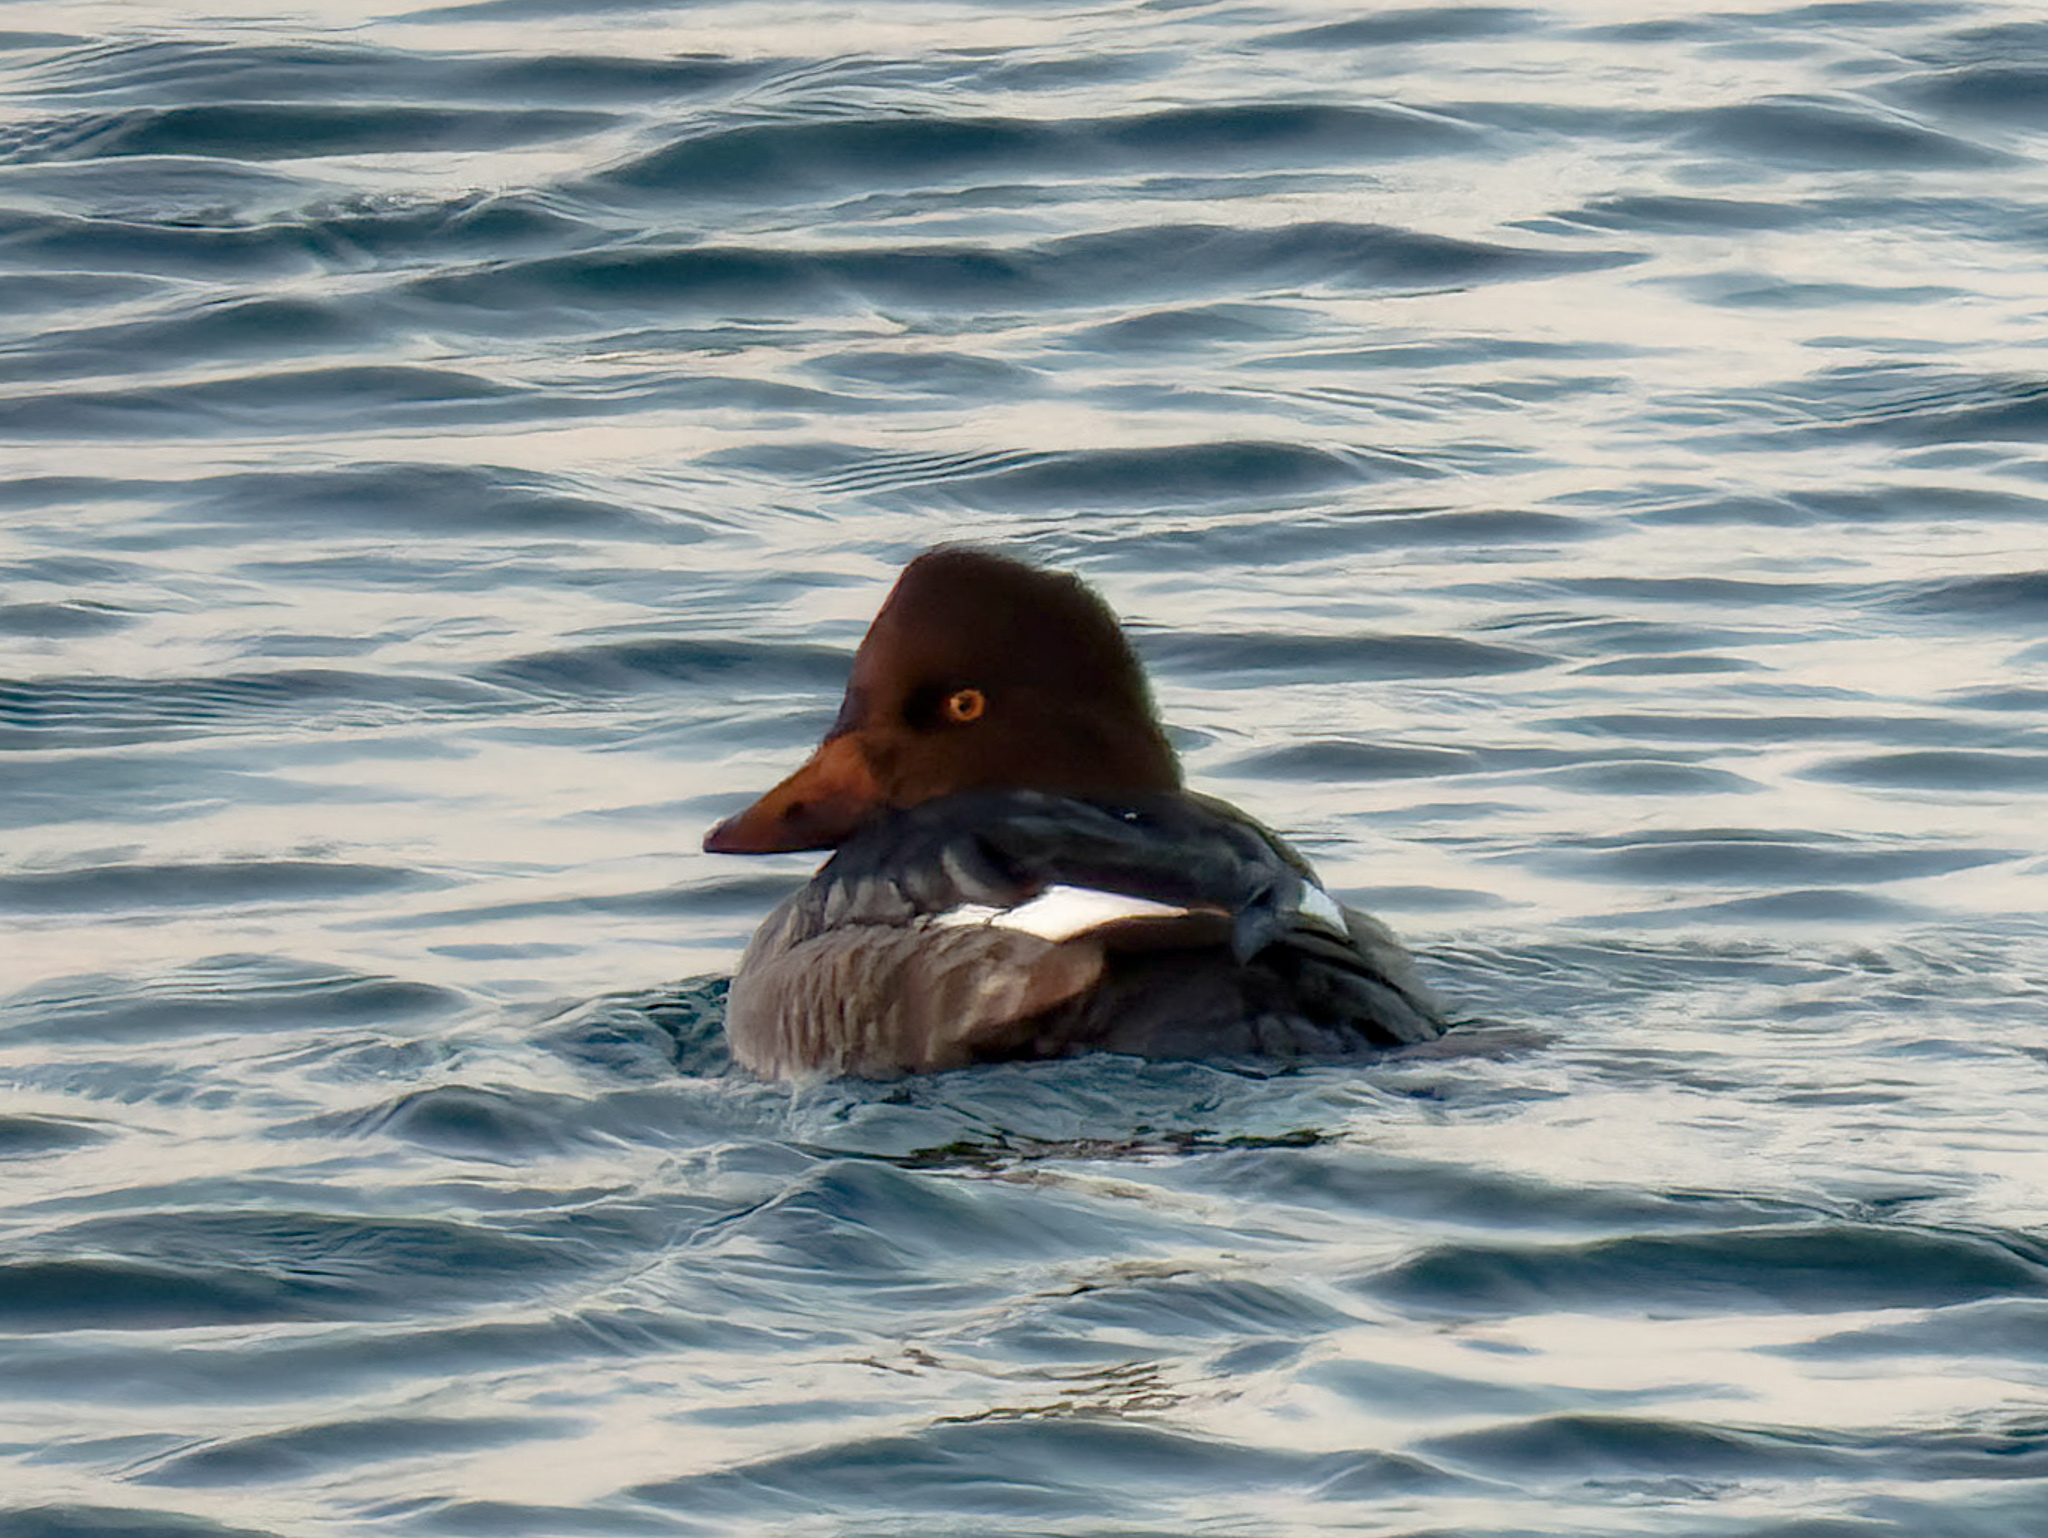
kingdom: Animalia
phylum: Chordata
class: Aves
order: Anseriformes
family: Anatidae
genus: Bucephala
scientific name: Bucephala clangula
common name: Common goldeneye
